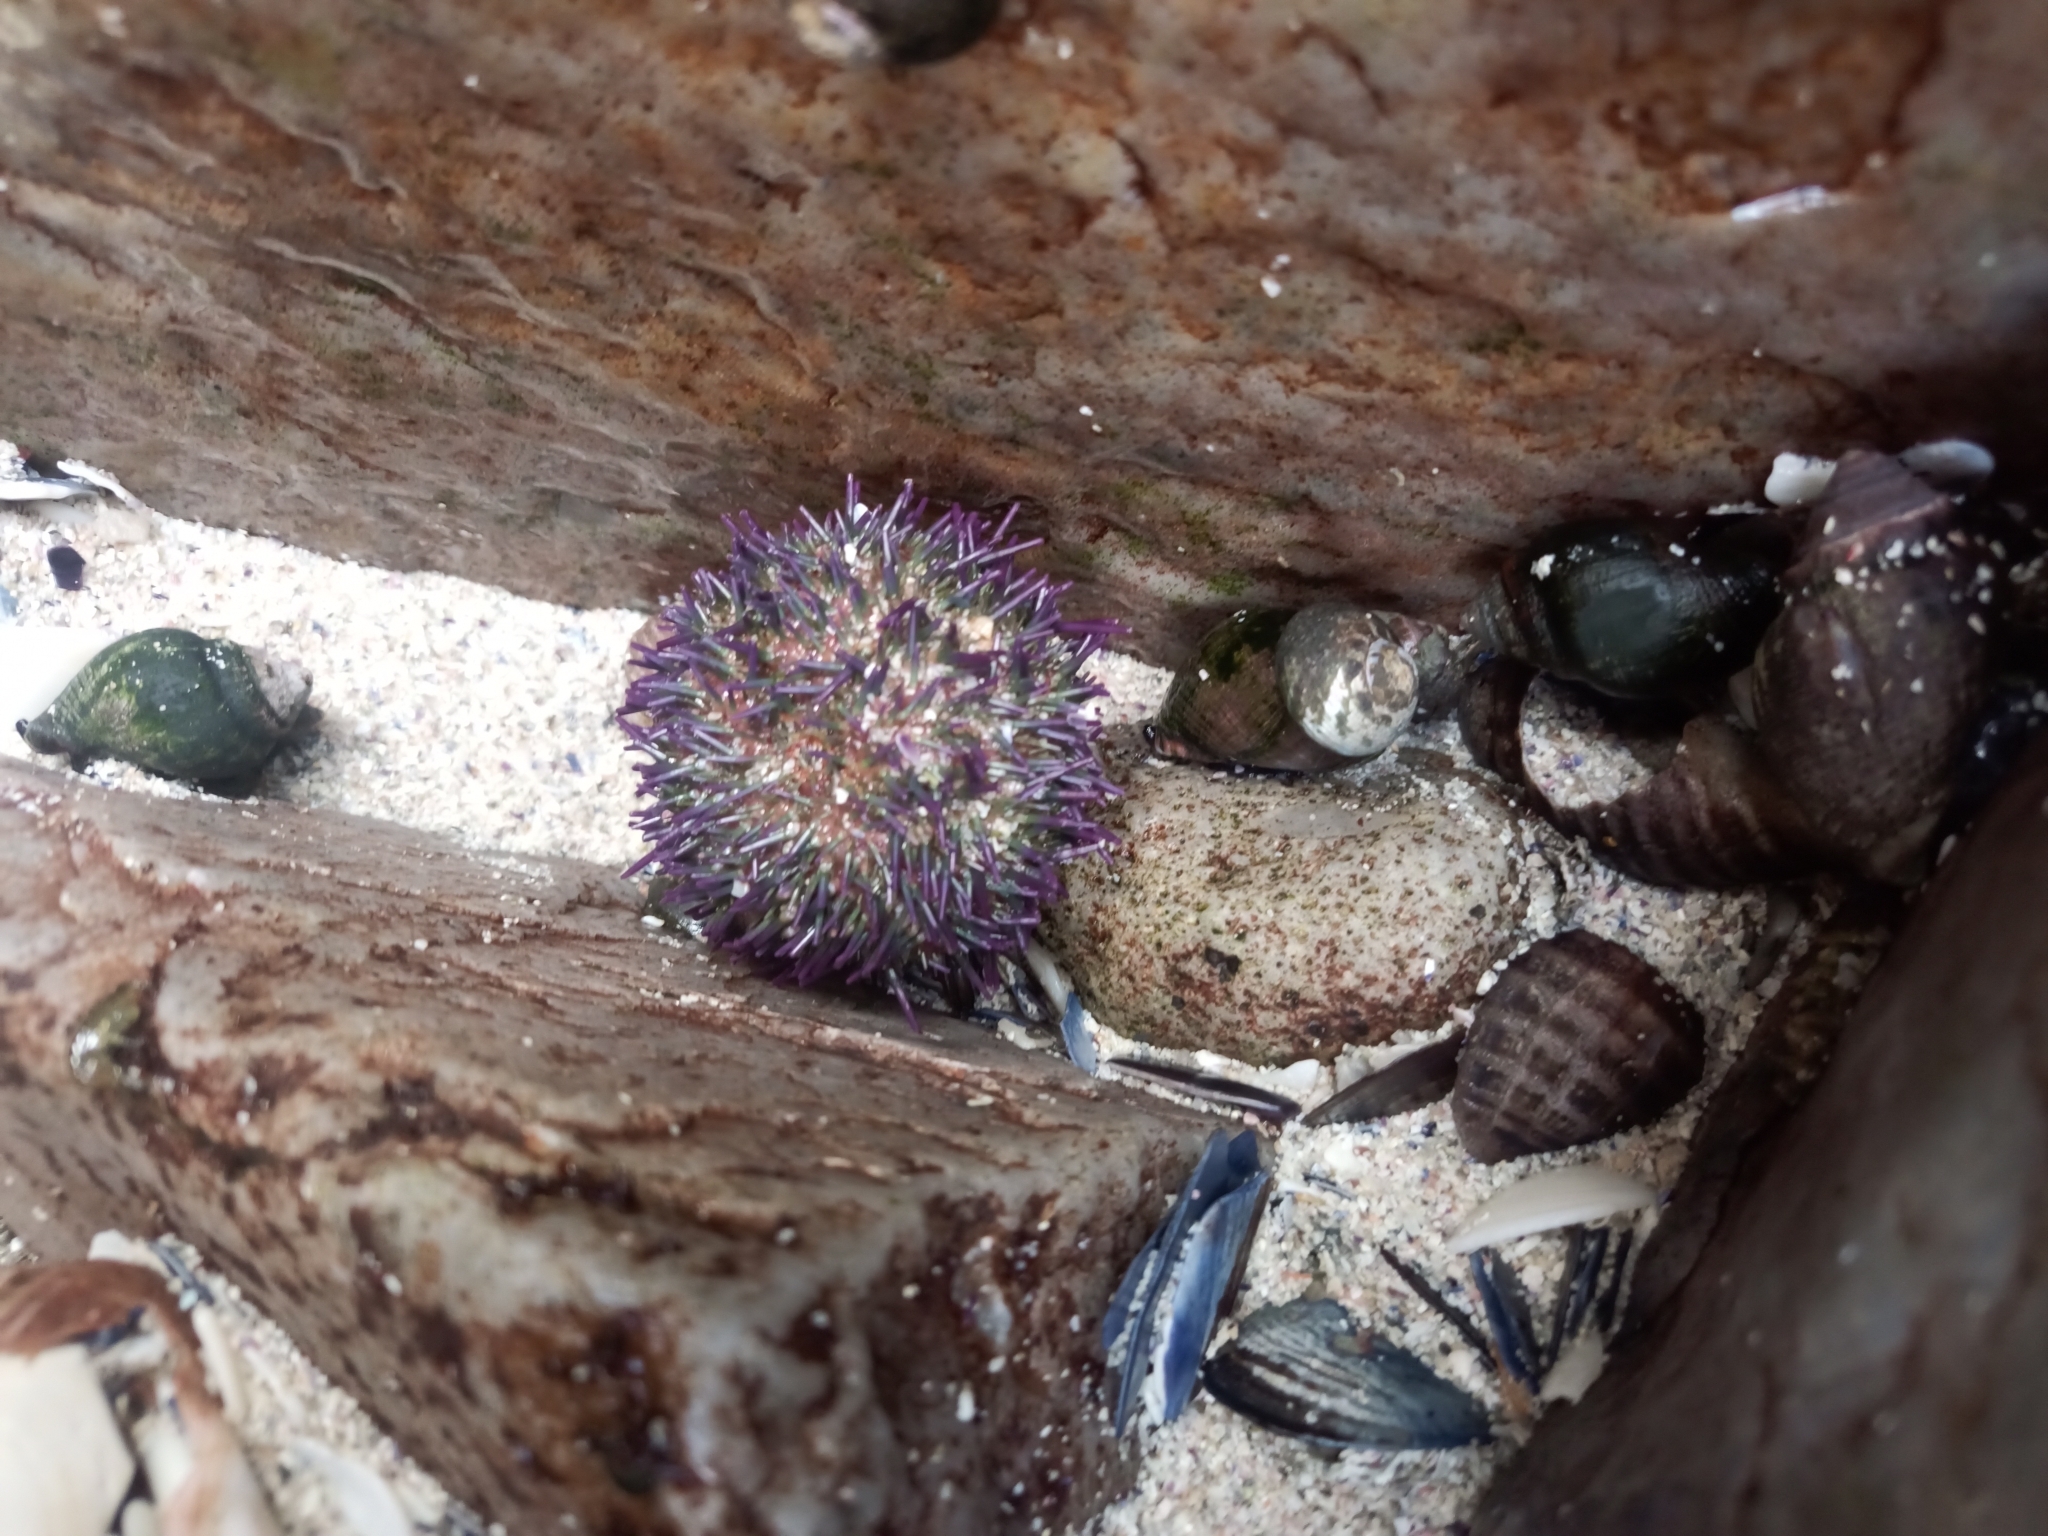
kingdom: Animalia
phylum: Echinodermata
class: Echinoidea
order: Camarodonta
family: Parechinidae
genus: Parechinus
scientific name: Parechinus angulosus
